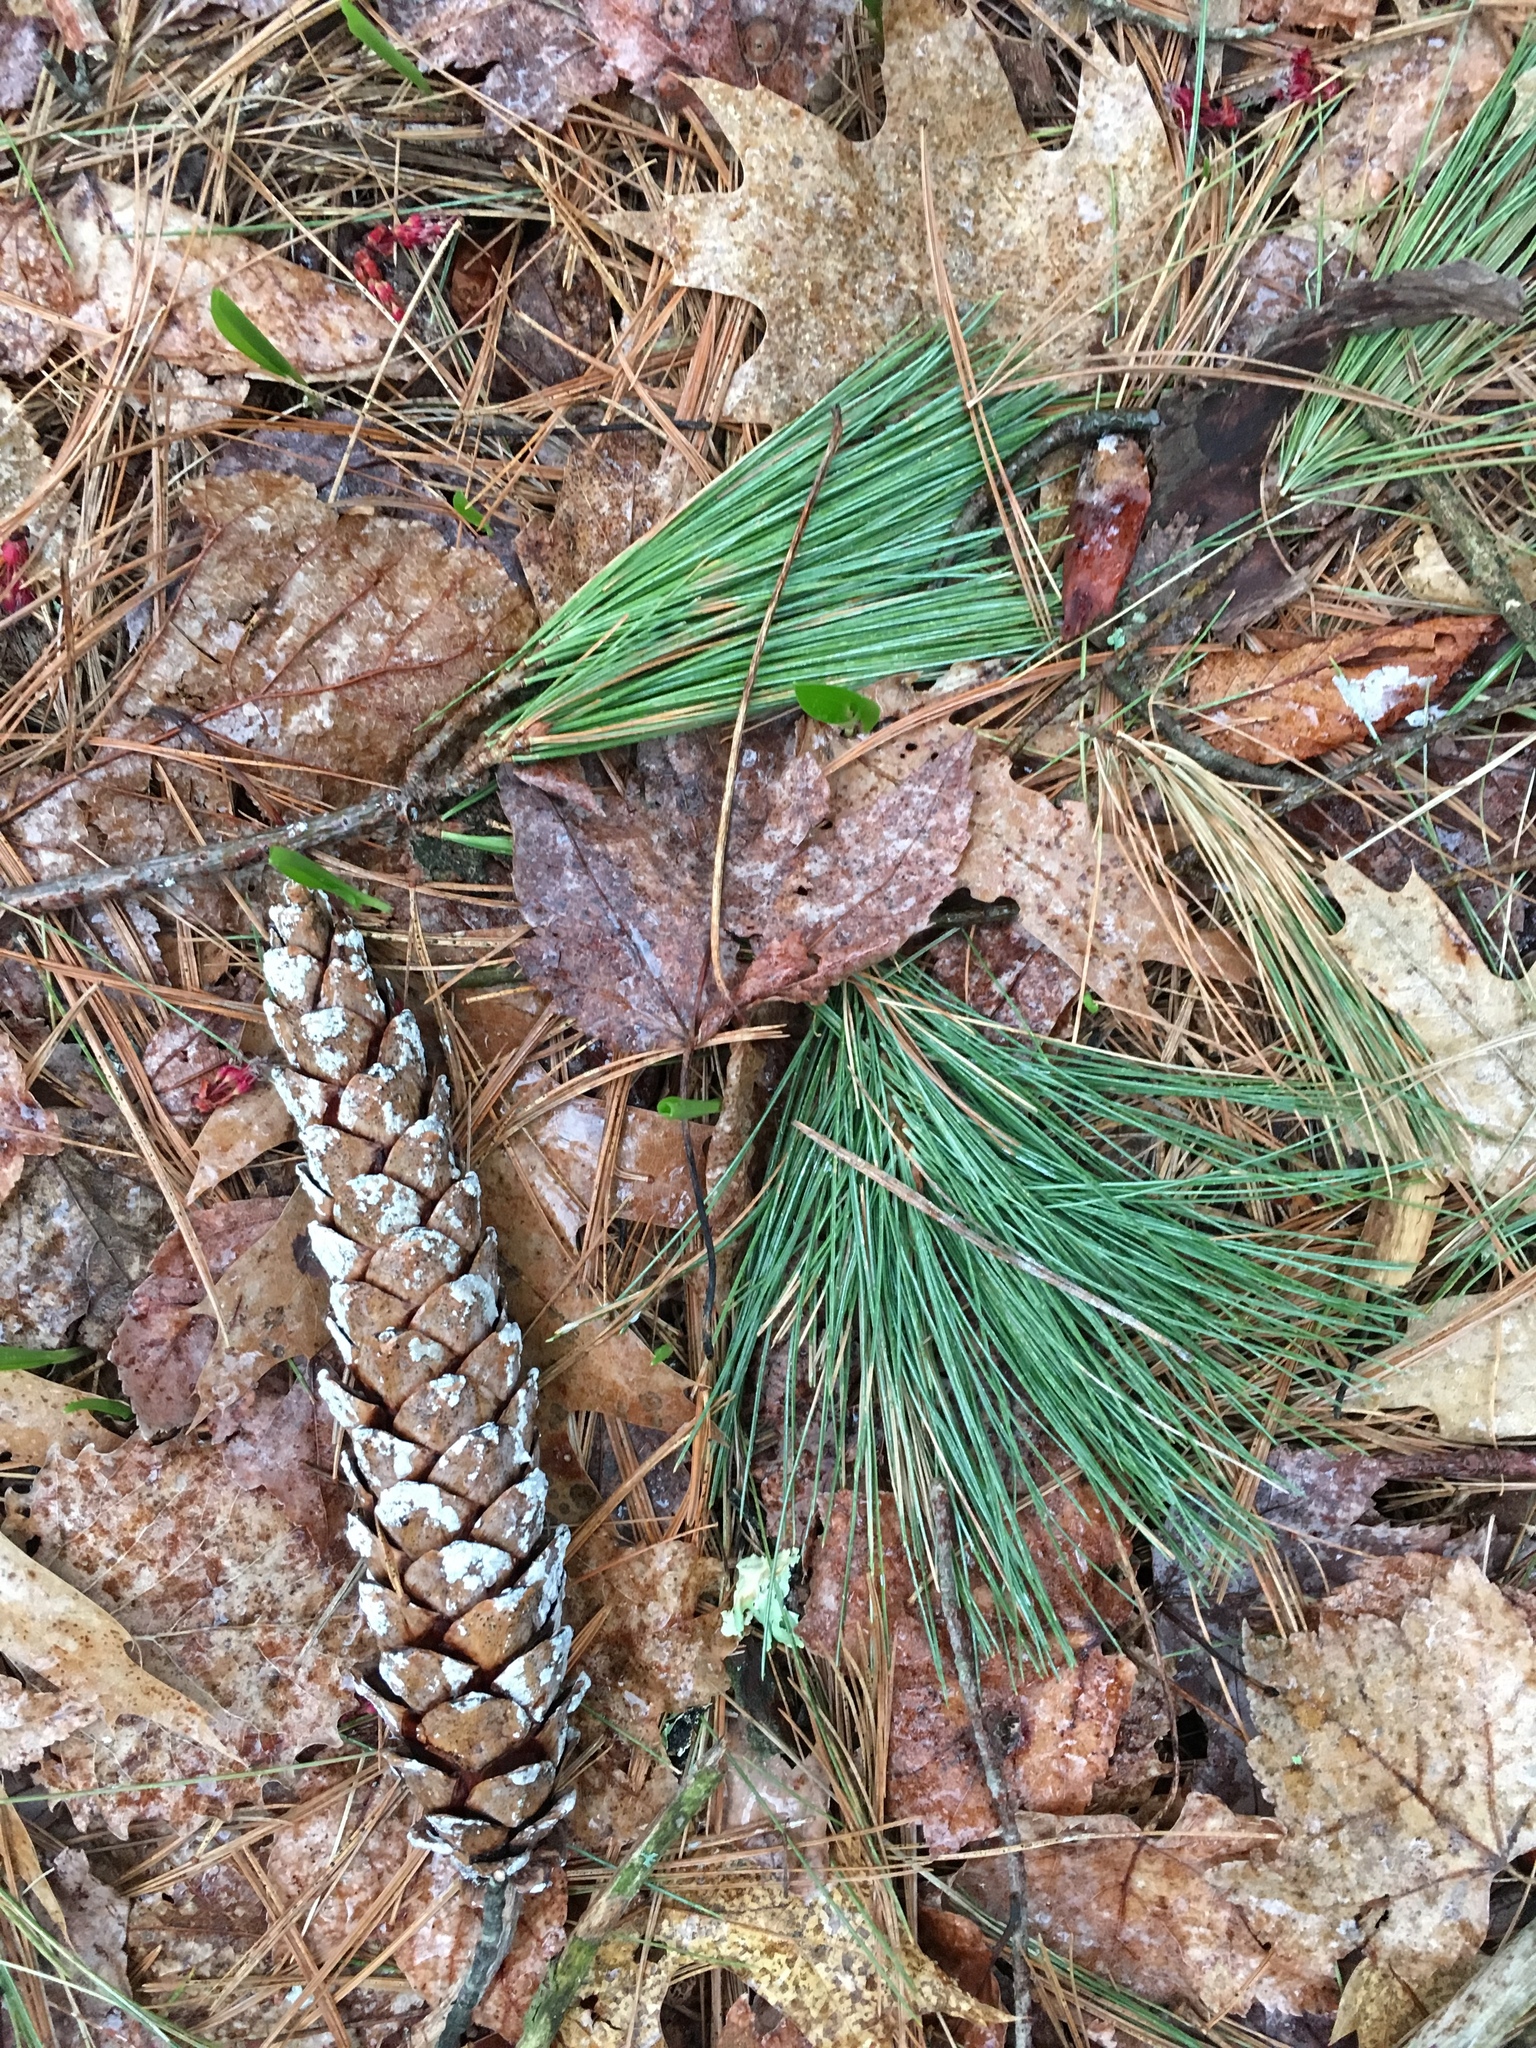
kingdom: Plantae
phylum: Tracheophyta
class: Pinopsida
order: Pinales
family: Pinaceae
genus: Pinus
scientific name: Pinus strobus
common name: Weymouth pine
